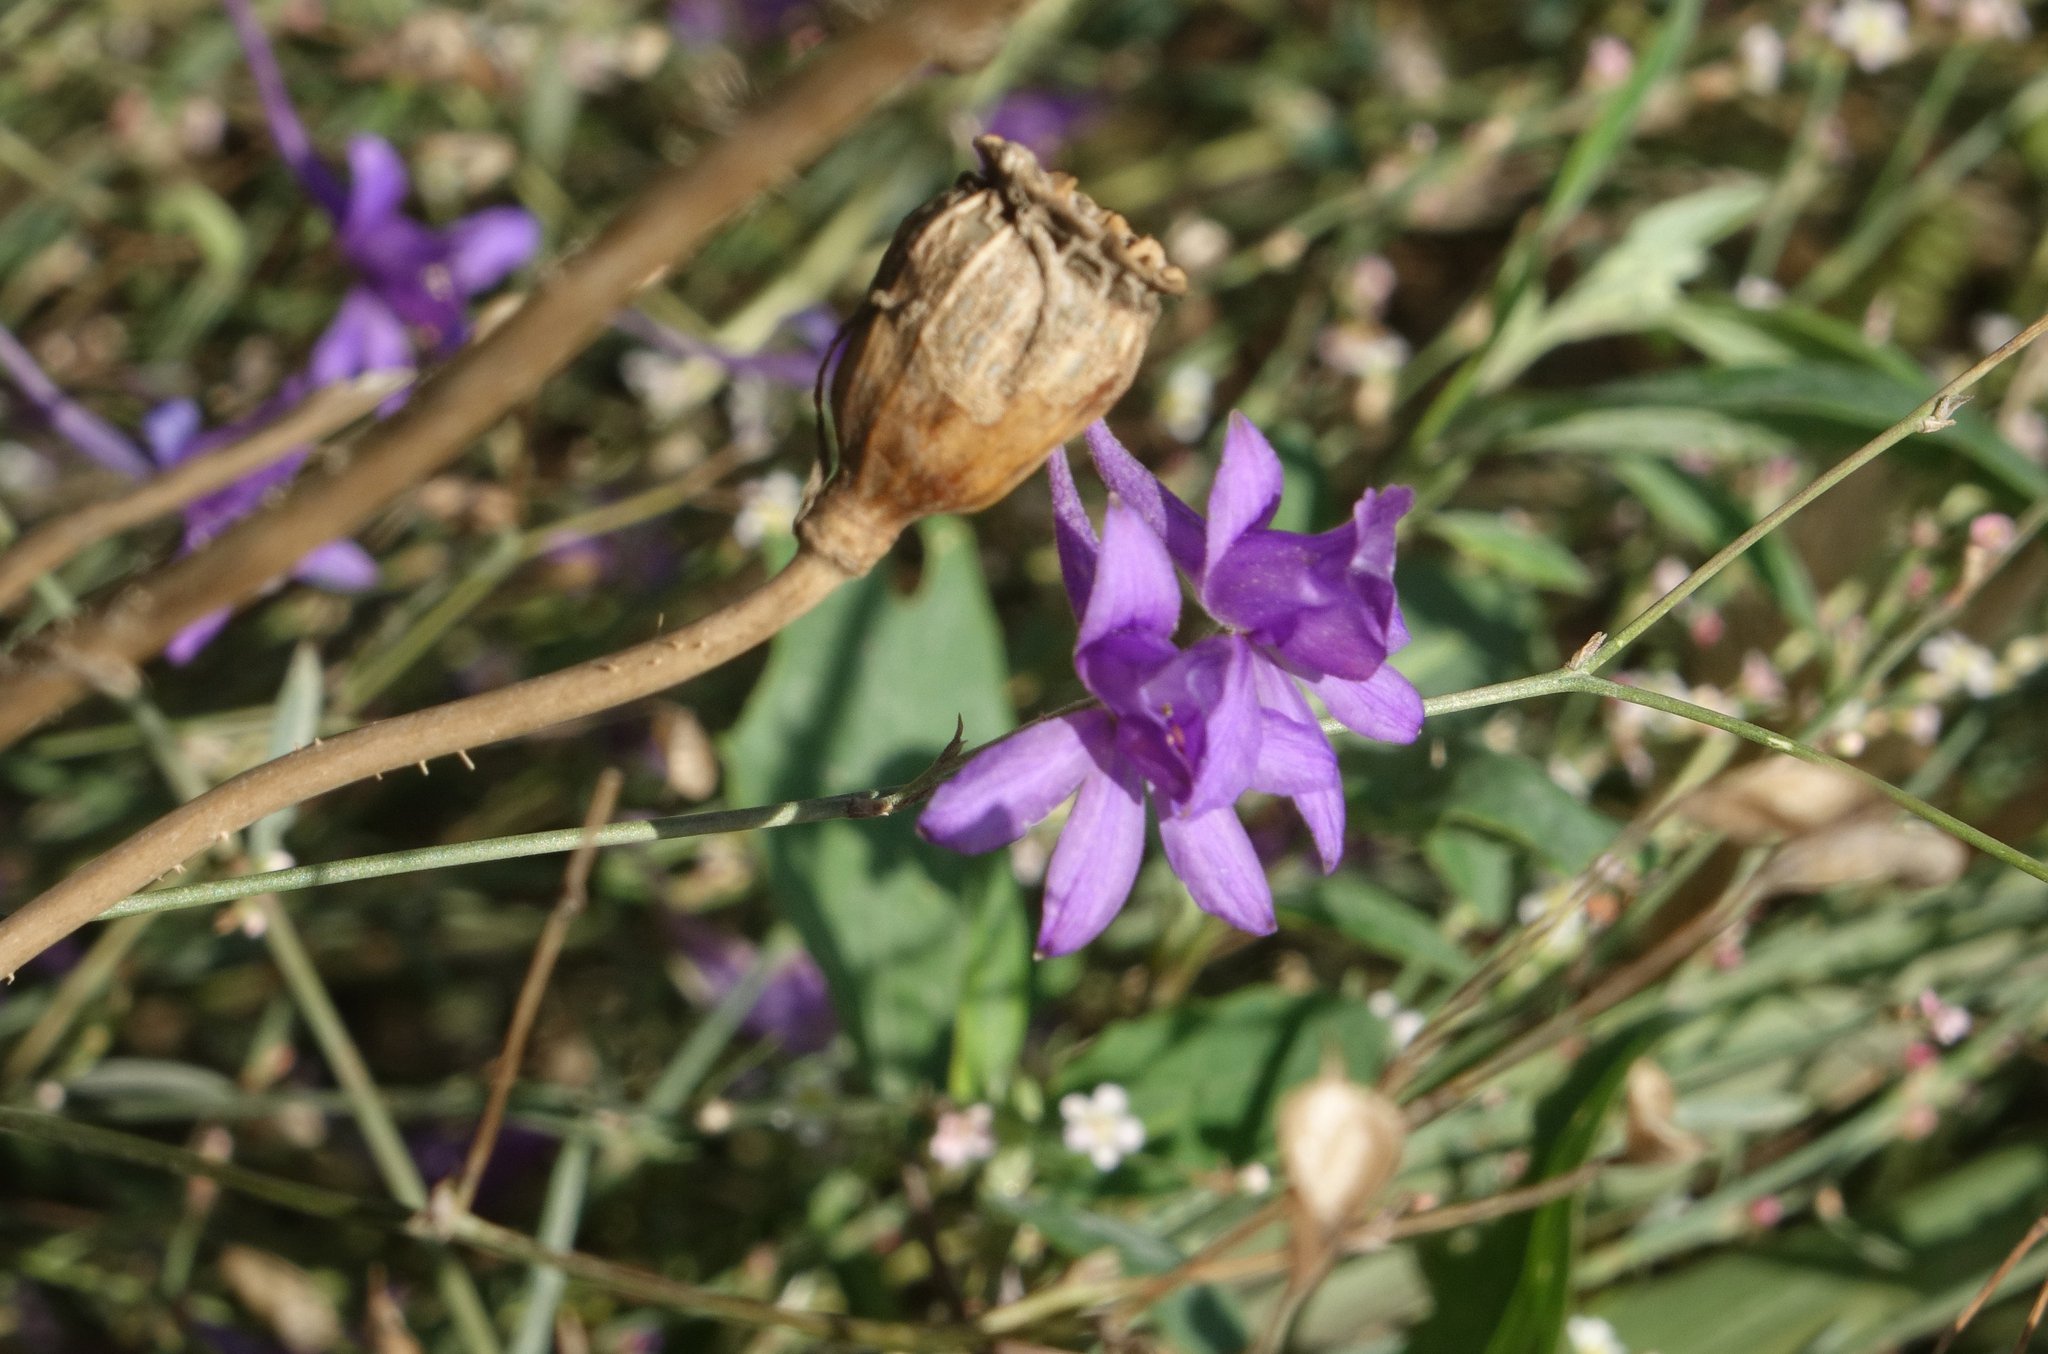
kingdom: Plantae
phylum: Tracheophyta
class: Magnoliopsida
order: Ranunculales
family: Ranunculaceae
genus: Delphinium
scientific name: Delphinium consolida
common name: Branching larkspur
